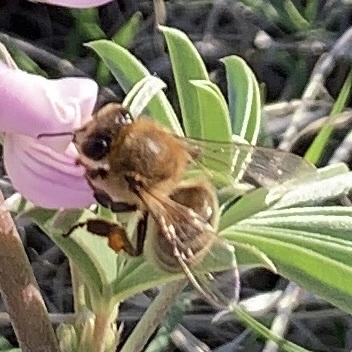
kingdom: Animalia
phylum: Arthropoda
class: Insecta
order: Hymenoptera
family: Apidae
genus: Apis
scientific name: Apis mellifera
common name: Honey bee
